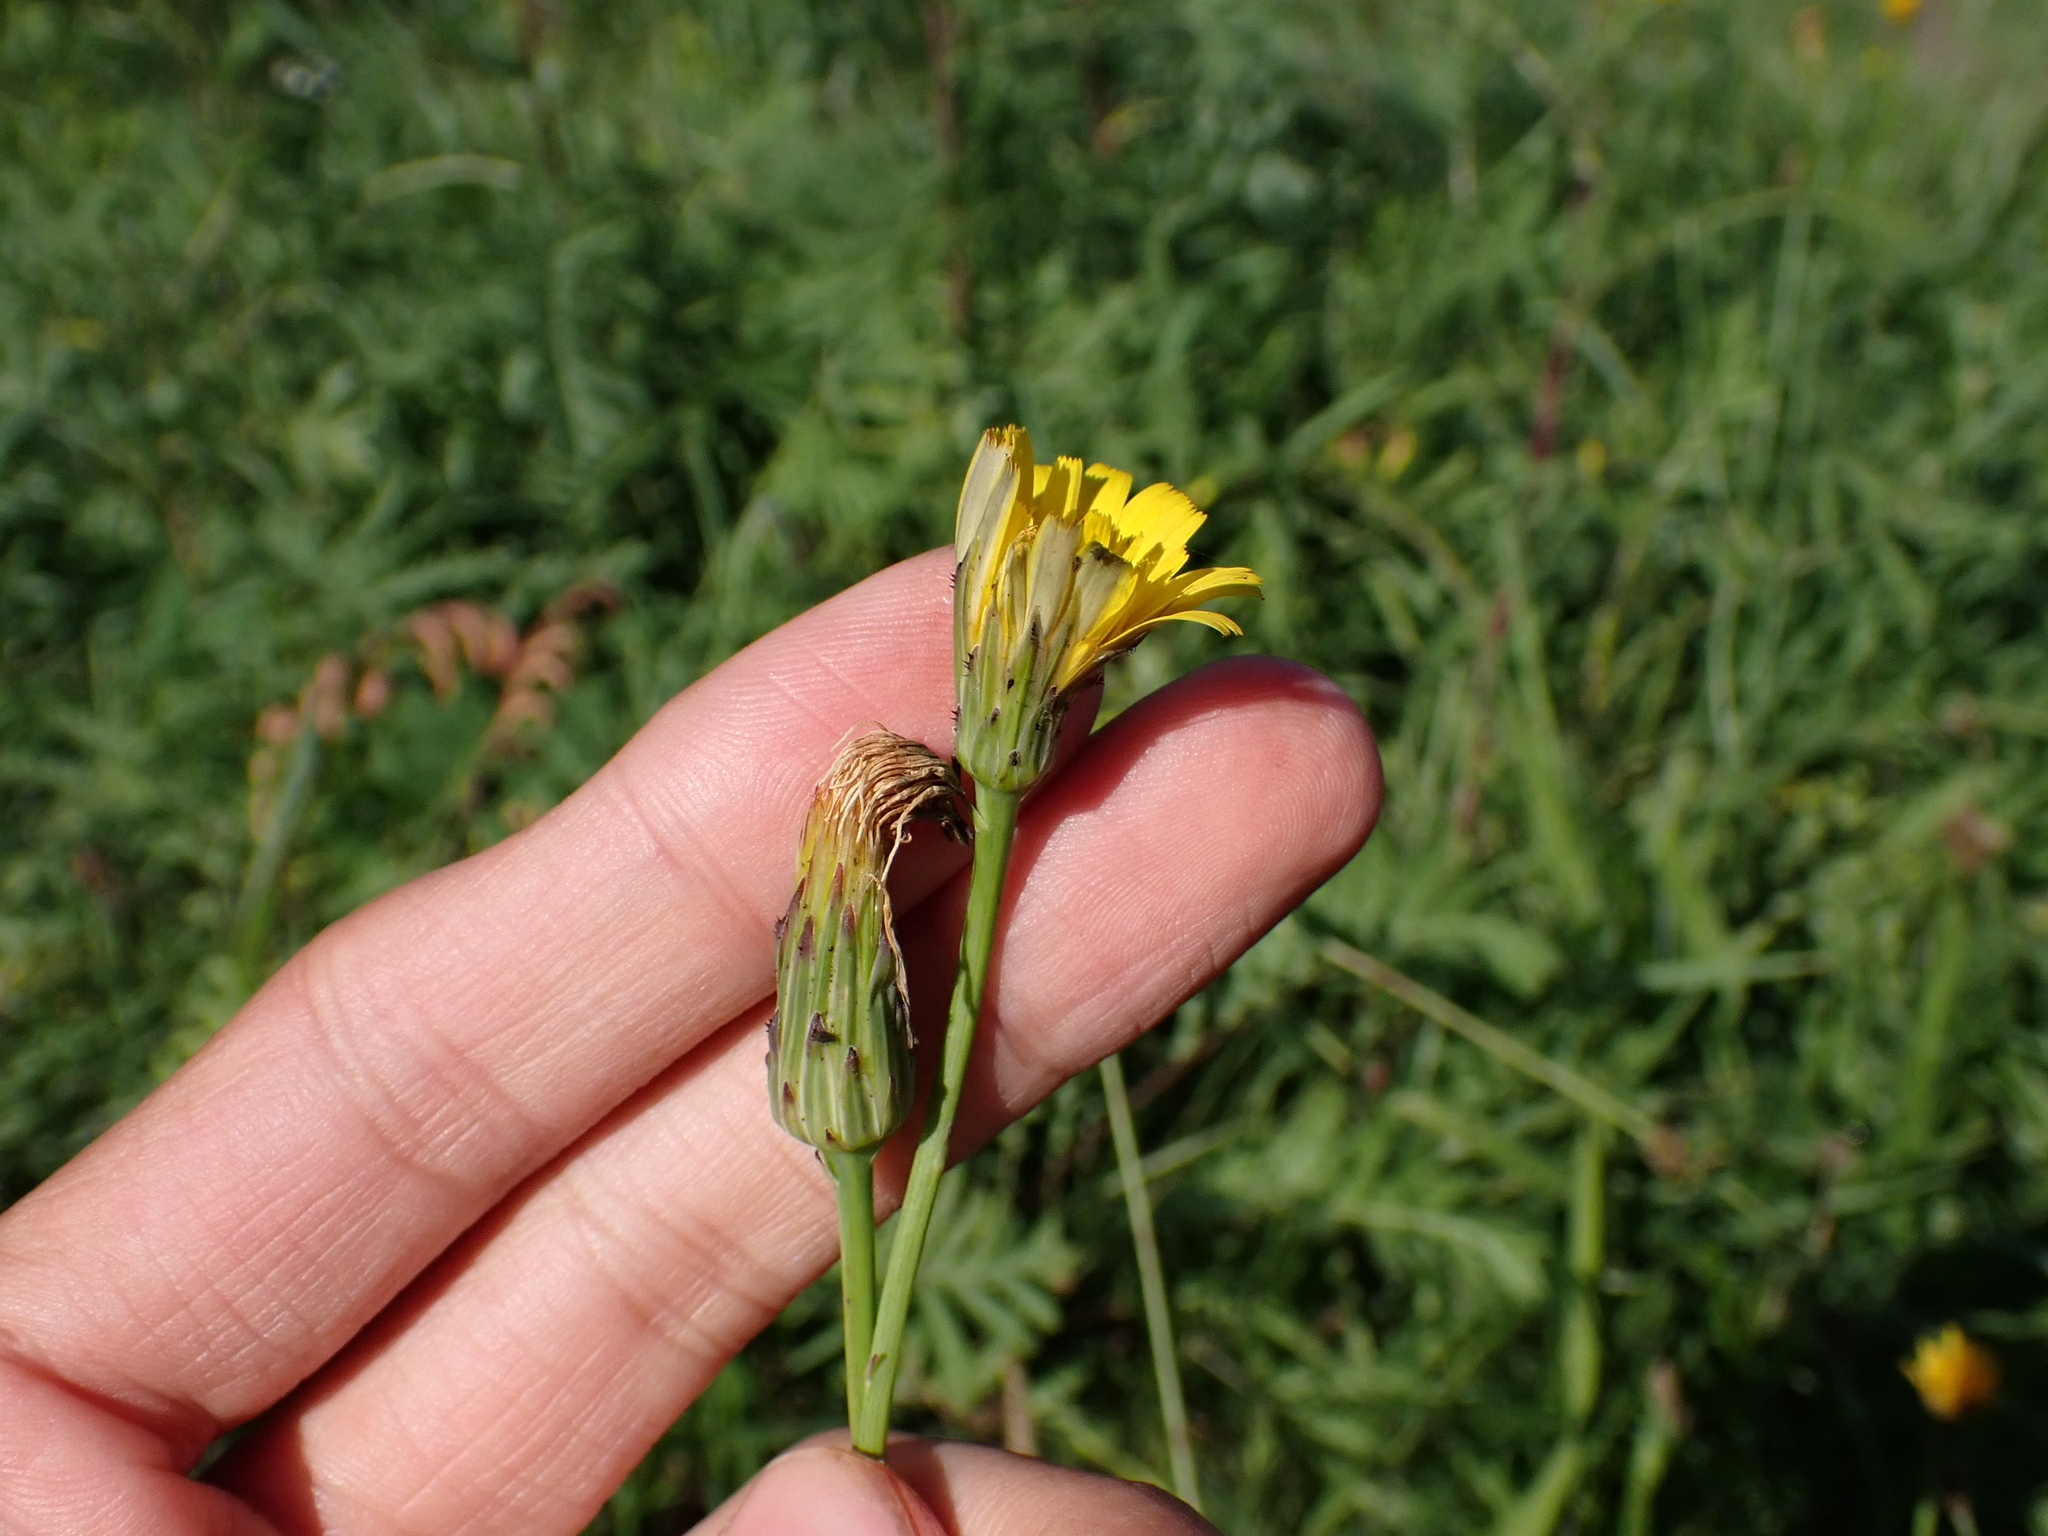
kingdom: Plantae
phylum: Tracheophyta
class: Magnoliopsida
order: Asterales
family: Asteraceae
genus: Hypochaeris
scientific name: Hypochaeris radicata
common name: Flatweed
